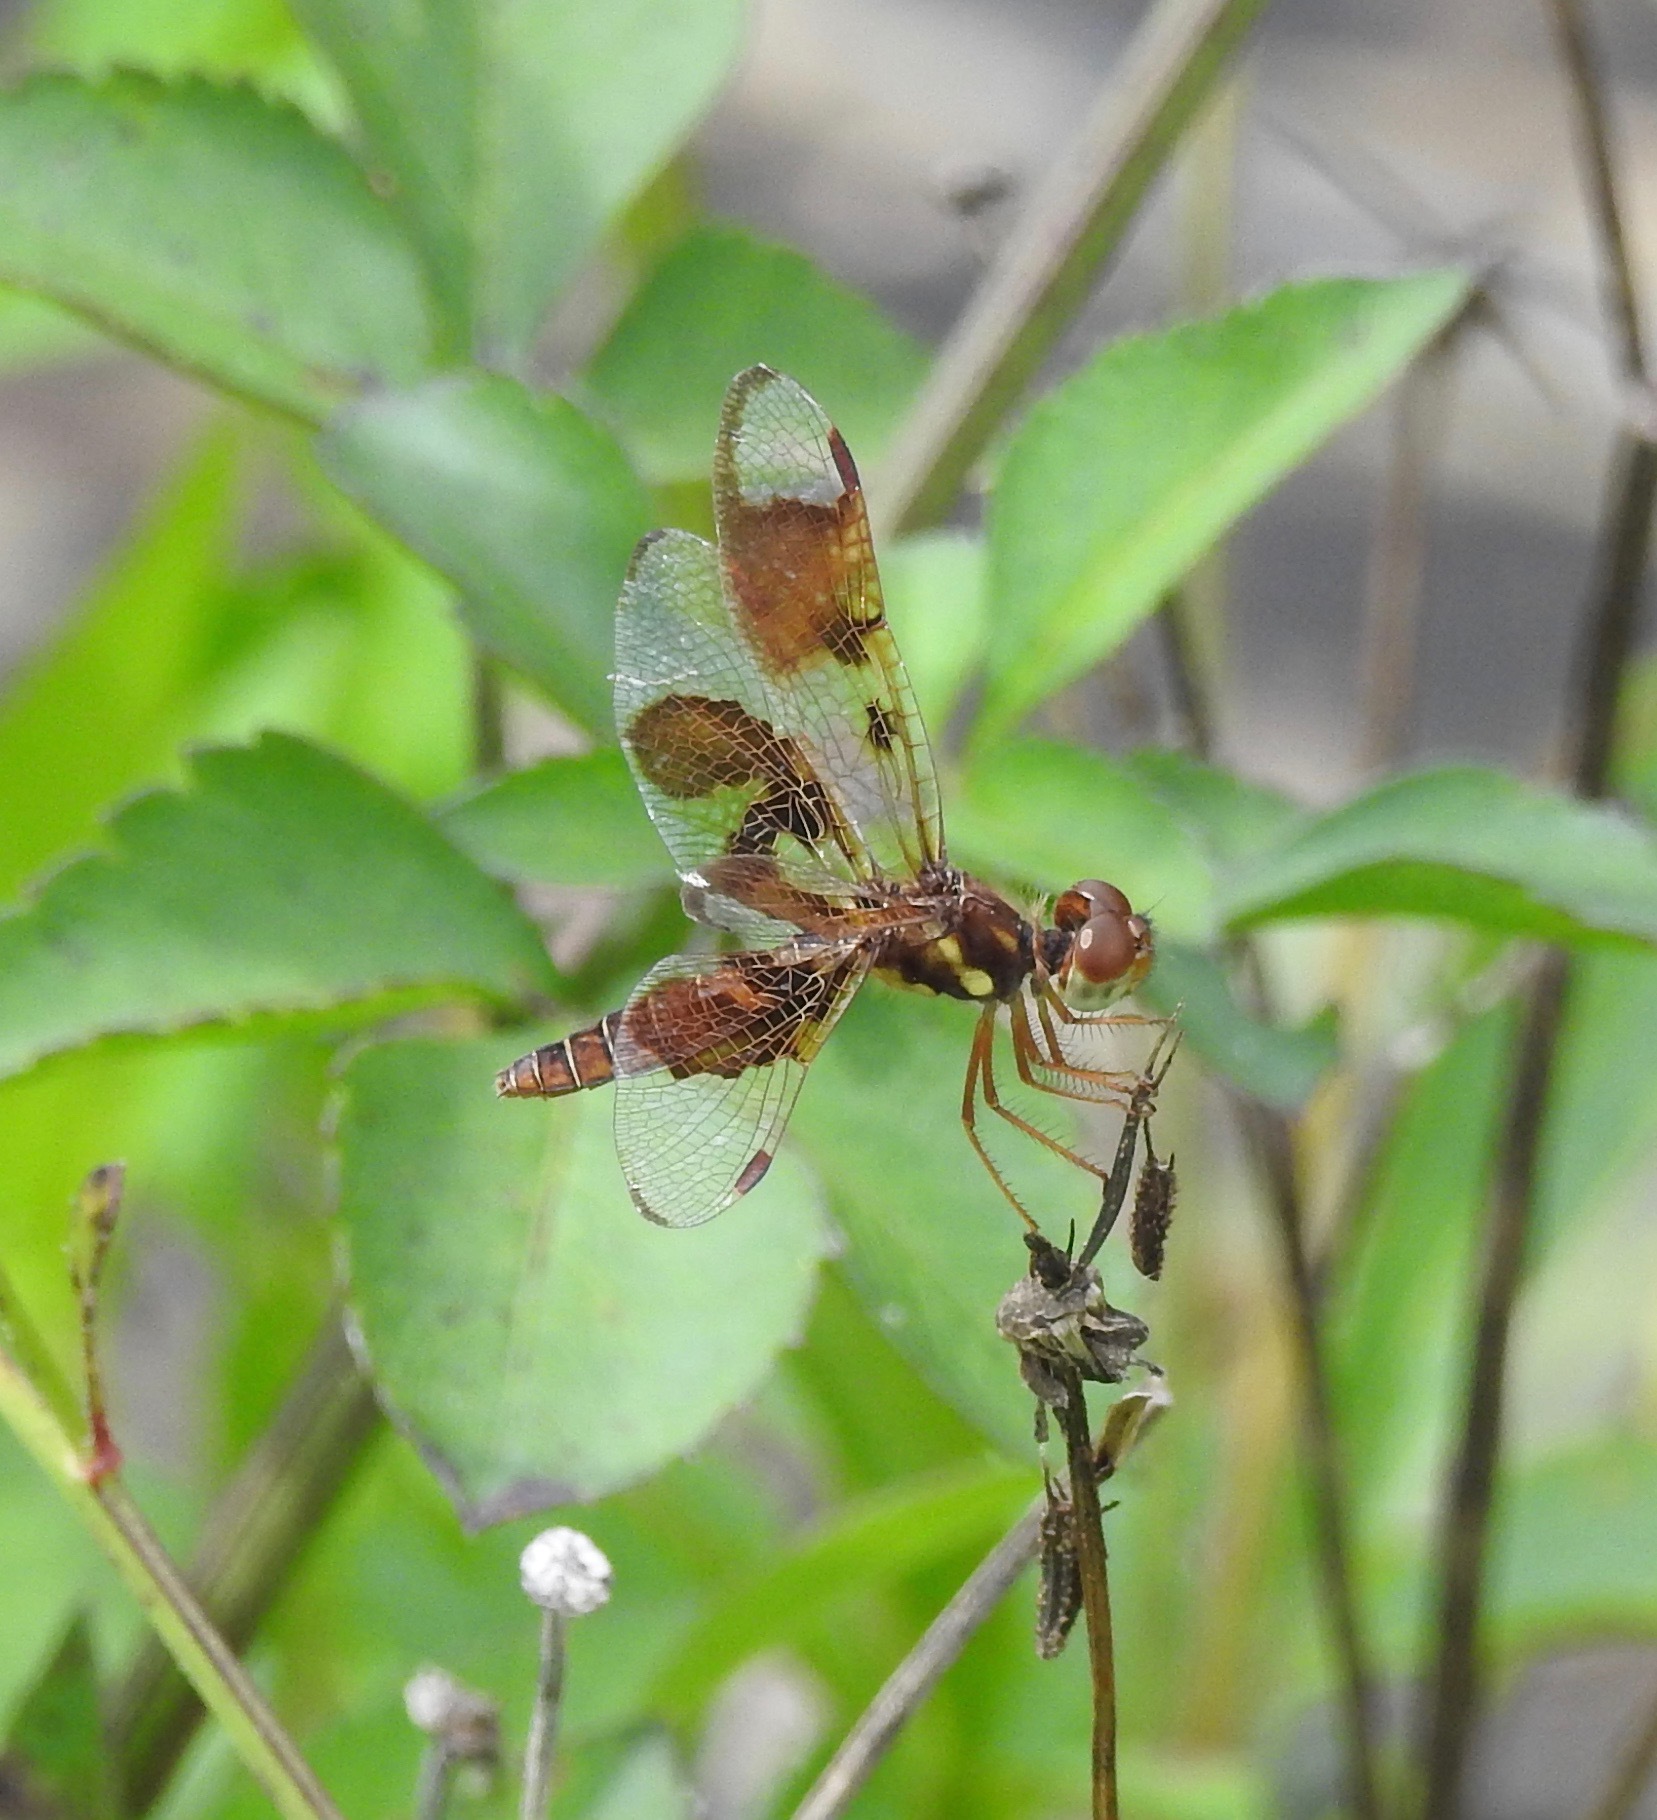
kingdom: Animalia
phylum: Arthropoda
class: Insecta
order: Odonata
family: Libellulidae
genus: Perithemis
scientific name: Perithemis tenera
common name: Eastern amberwing
